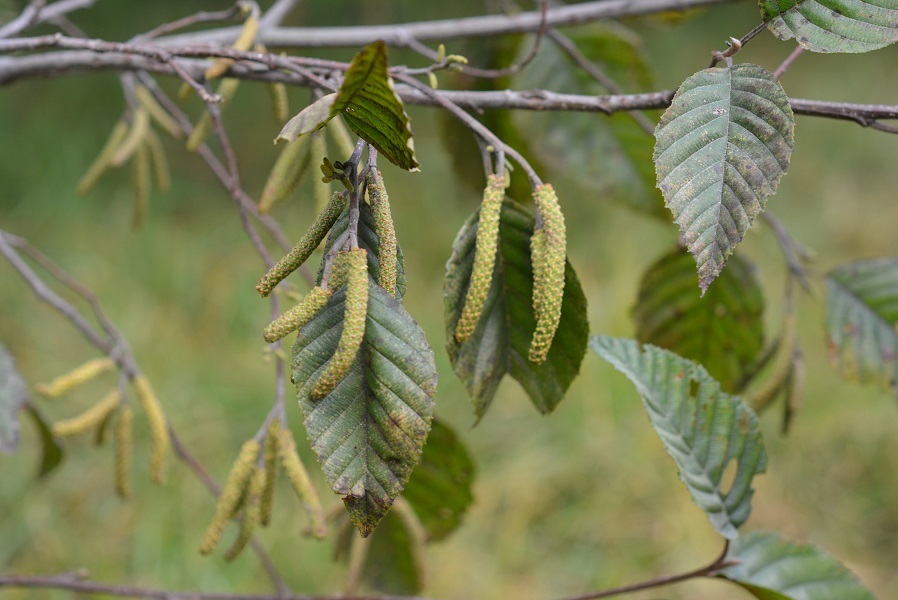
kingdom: Plantae
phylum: Tracheophyta
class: Magnoliopsida
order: Fagales
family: Betulaceae
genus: Alnus
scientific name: Alnus acuminata
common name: Alder
